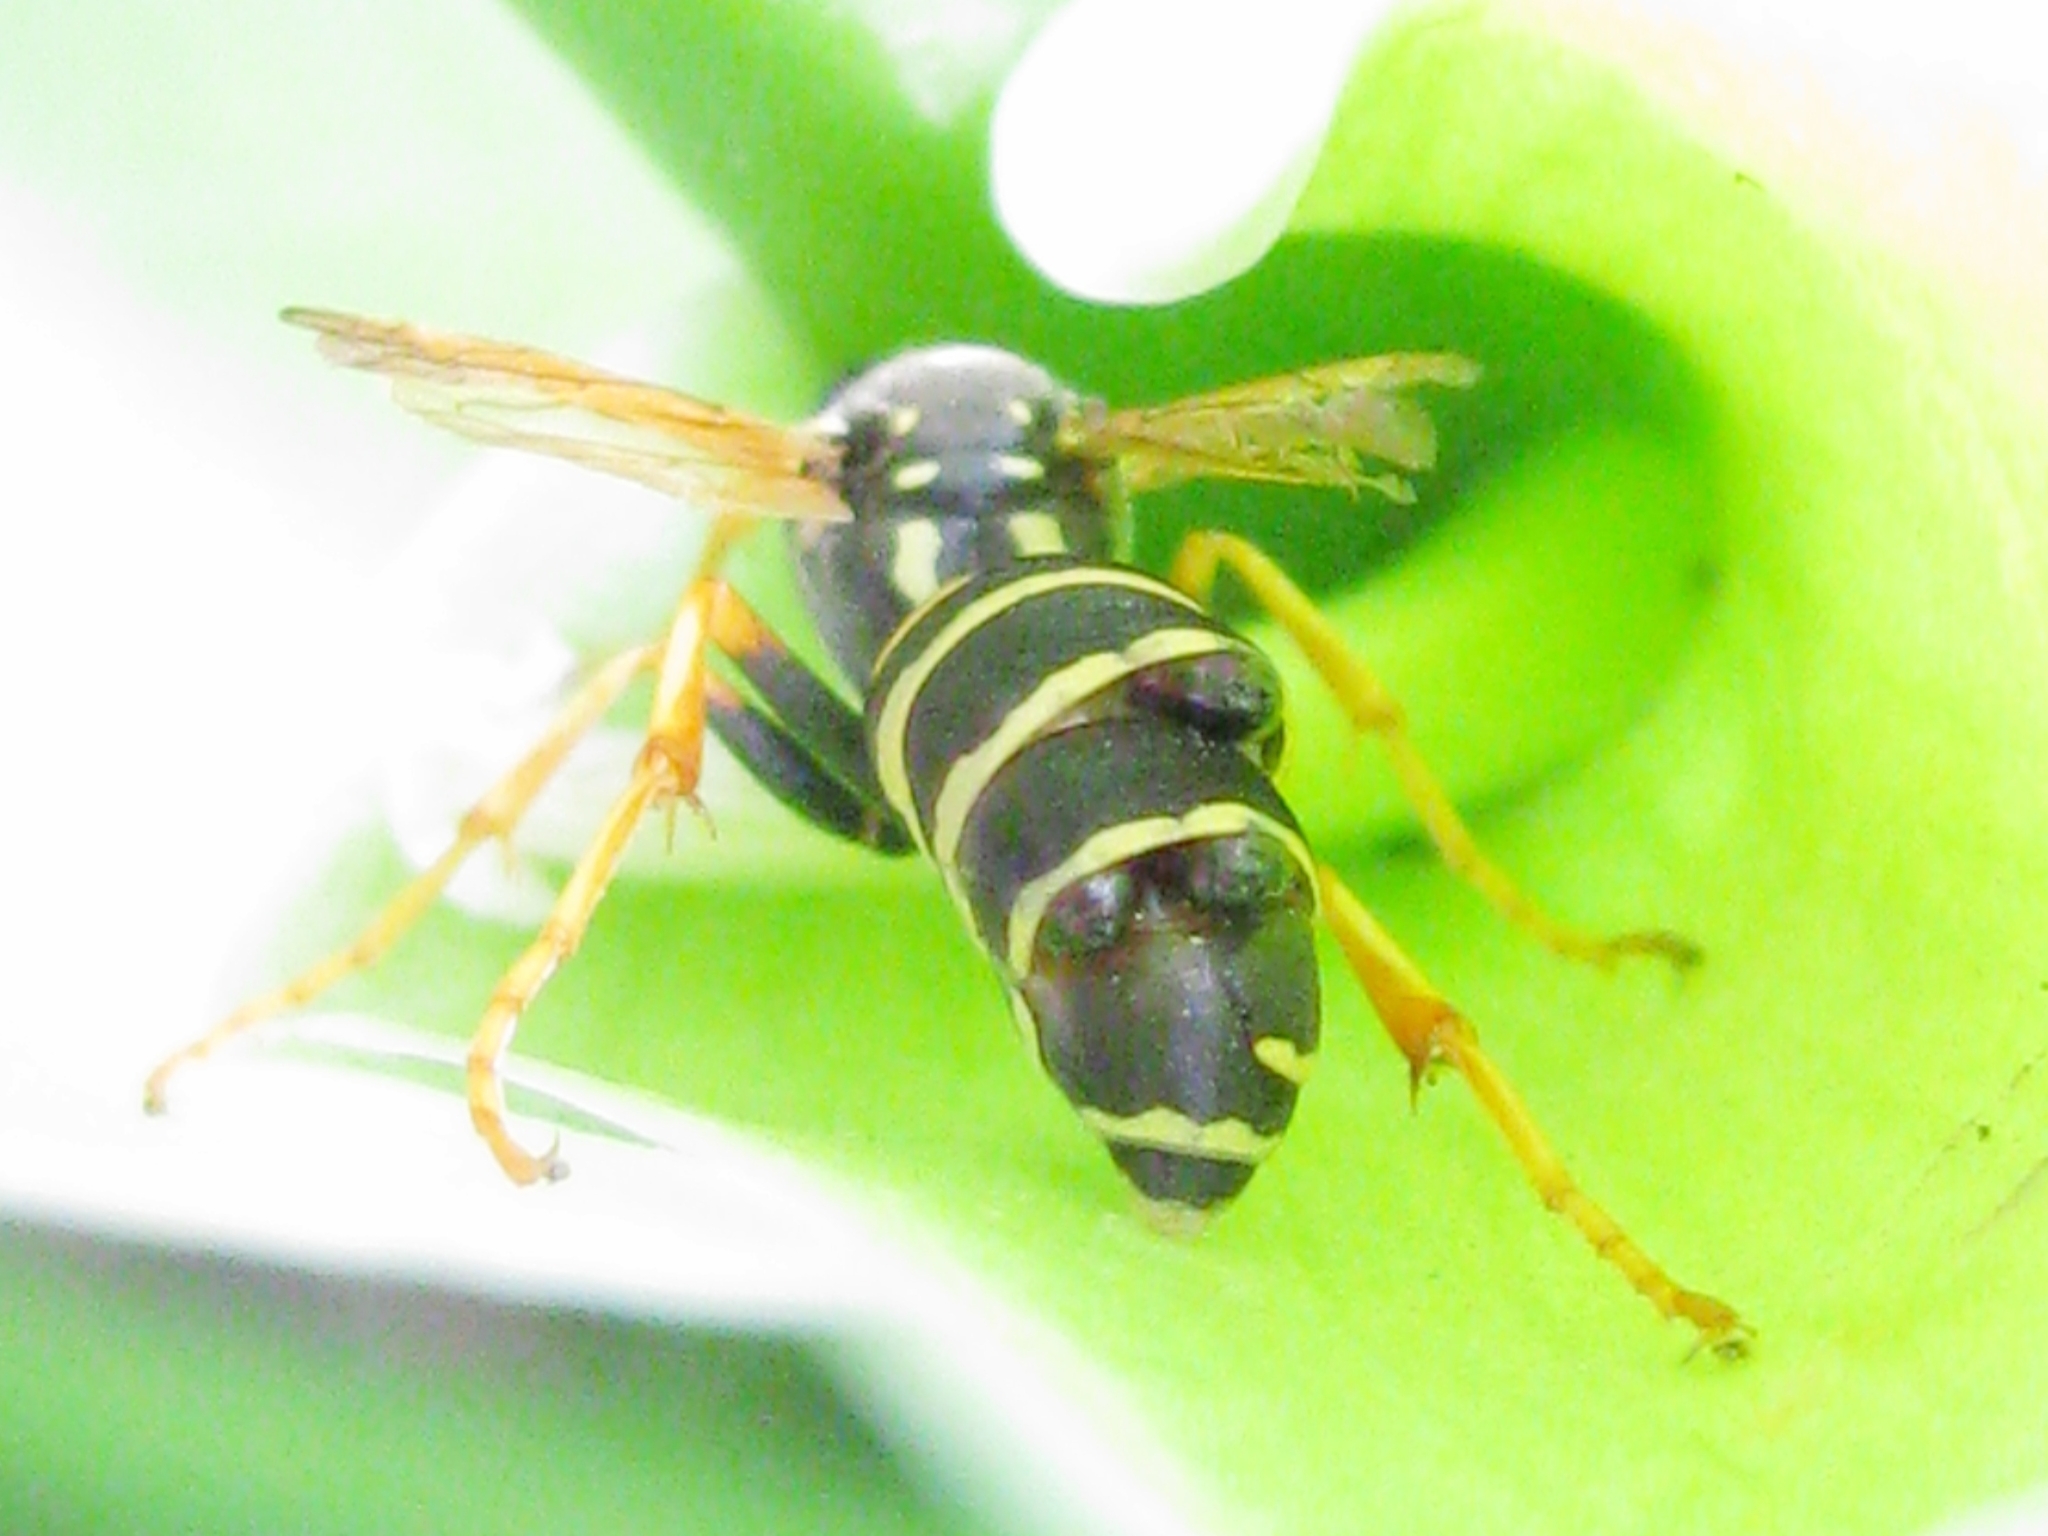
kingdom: Animalia
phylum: Arthropoda
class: Insecta
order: Strepsiptera
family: Xenidae
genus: Xenos
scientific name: Xenos vesparum
